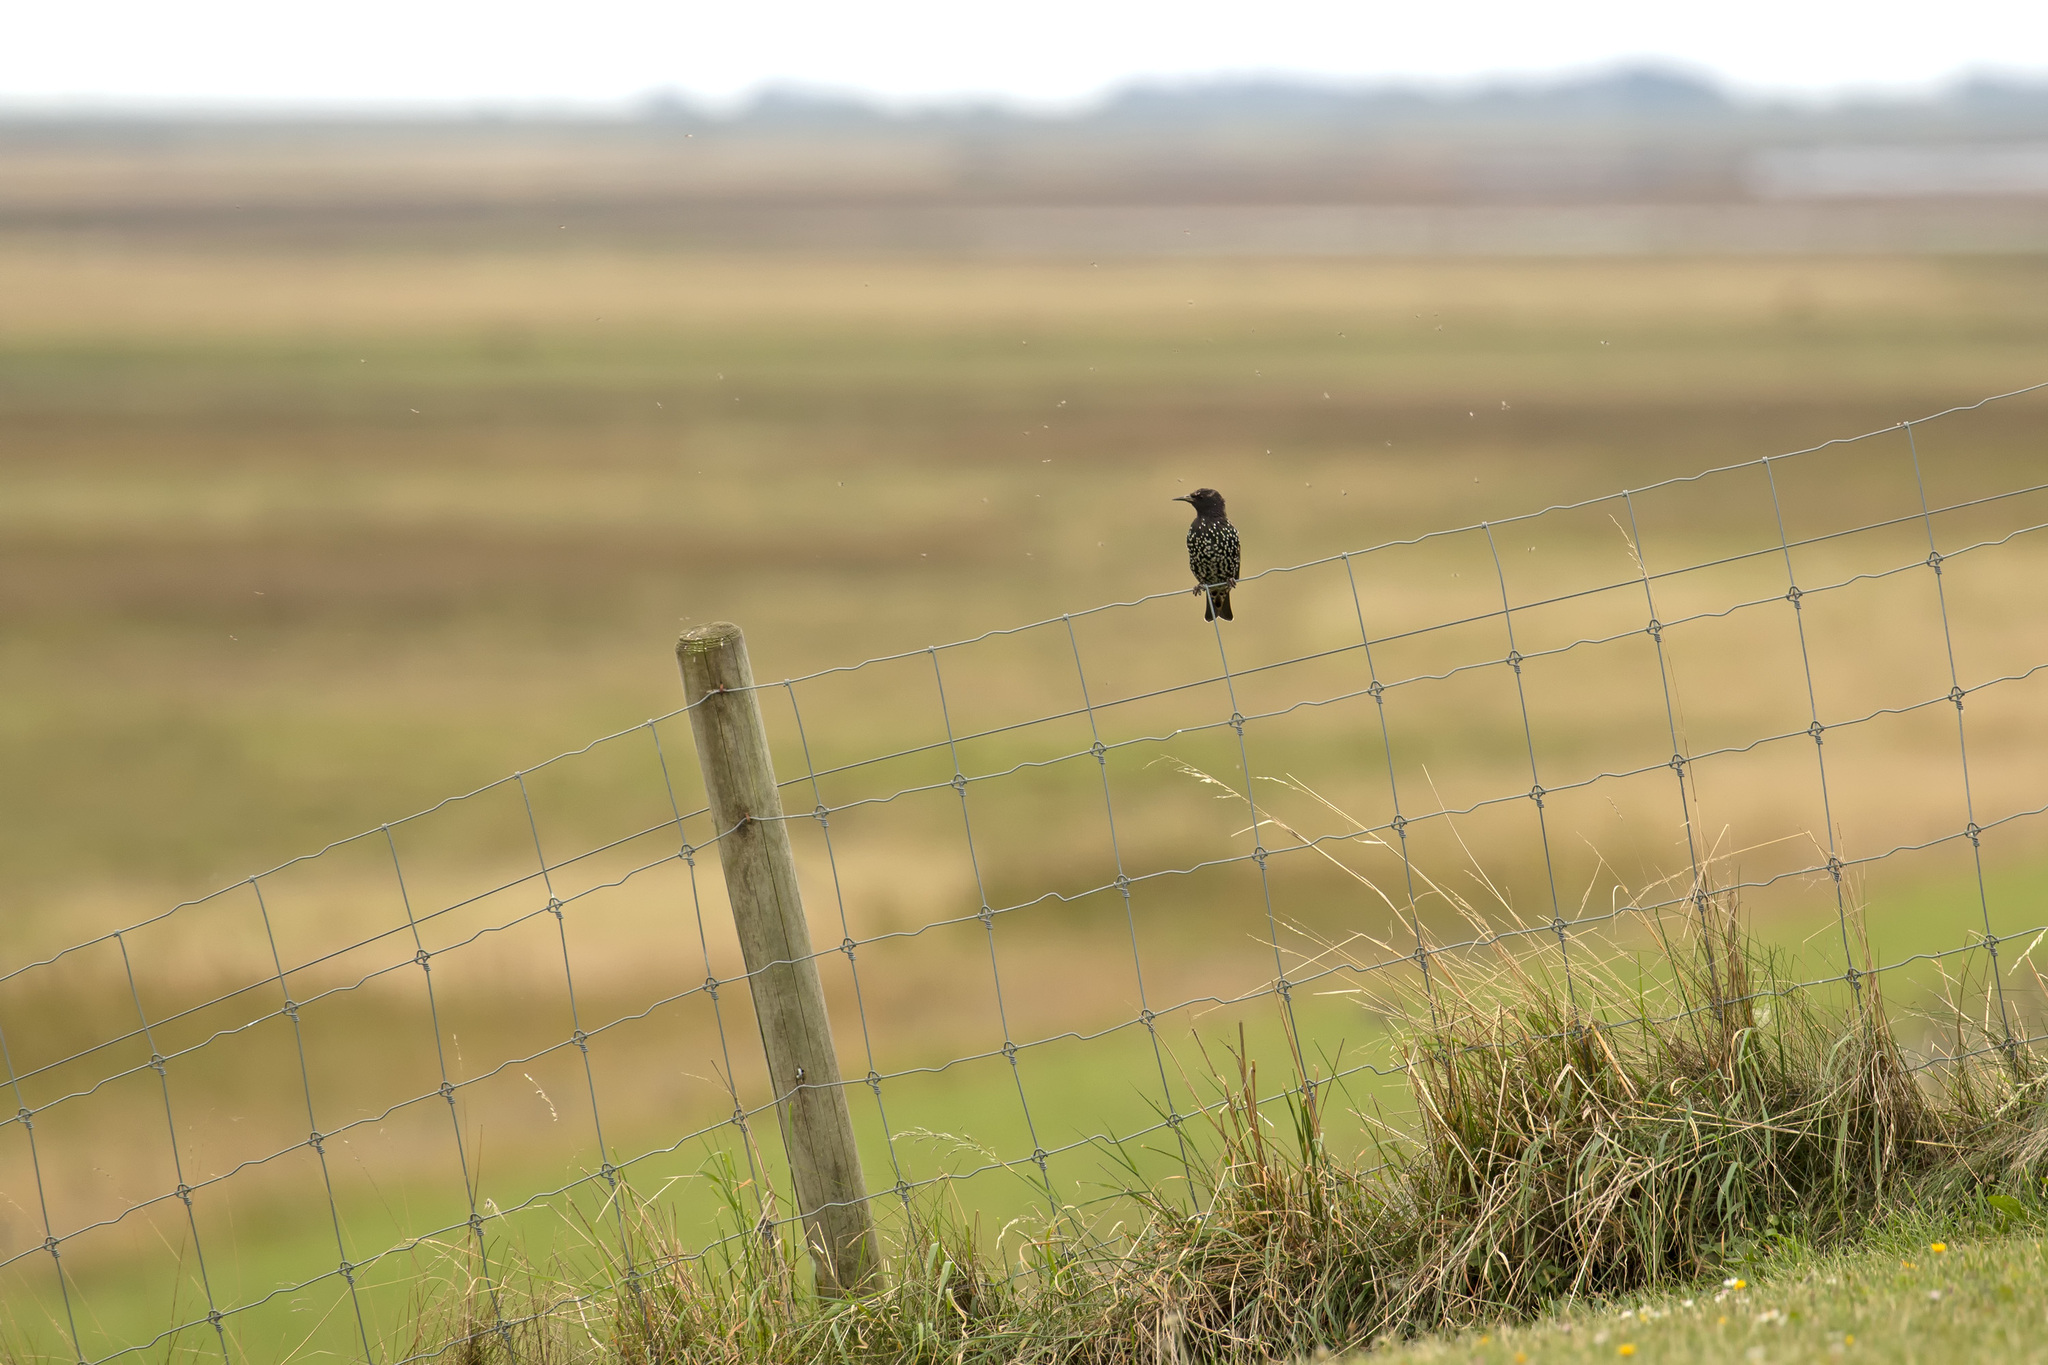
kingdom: Animalia
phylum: Chordata
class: Aves
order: Passeriformes
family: Sturnidae
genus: Sturnus
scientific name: Sturnus vulgaris
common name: Common starling
